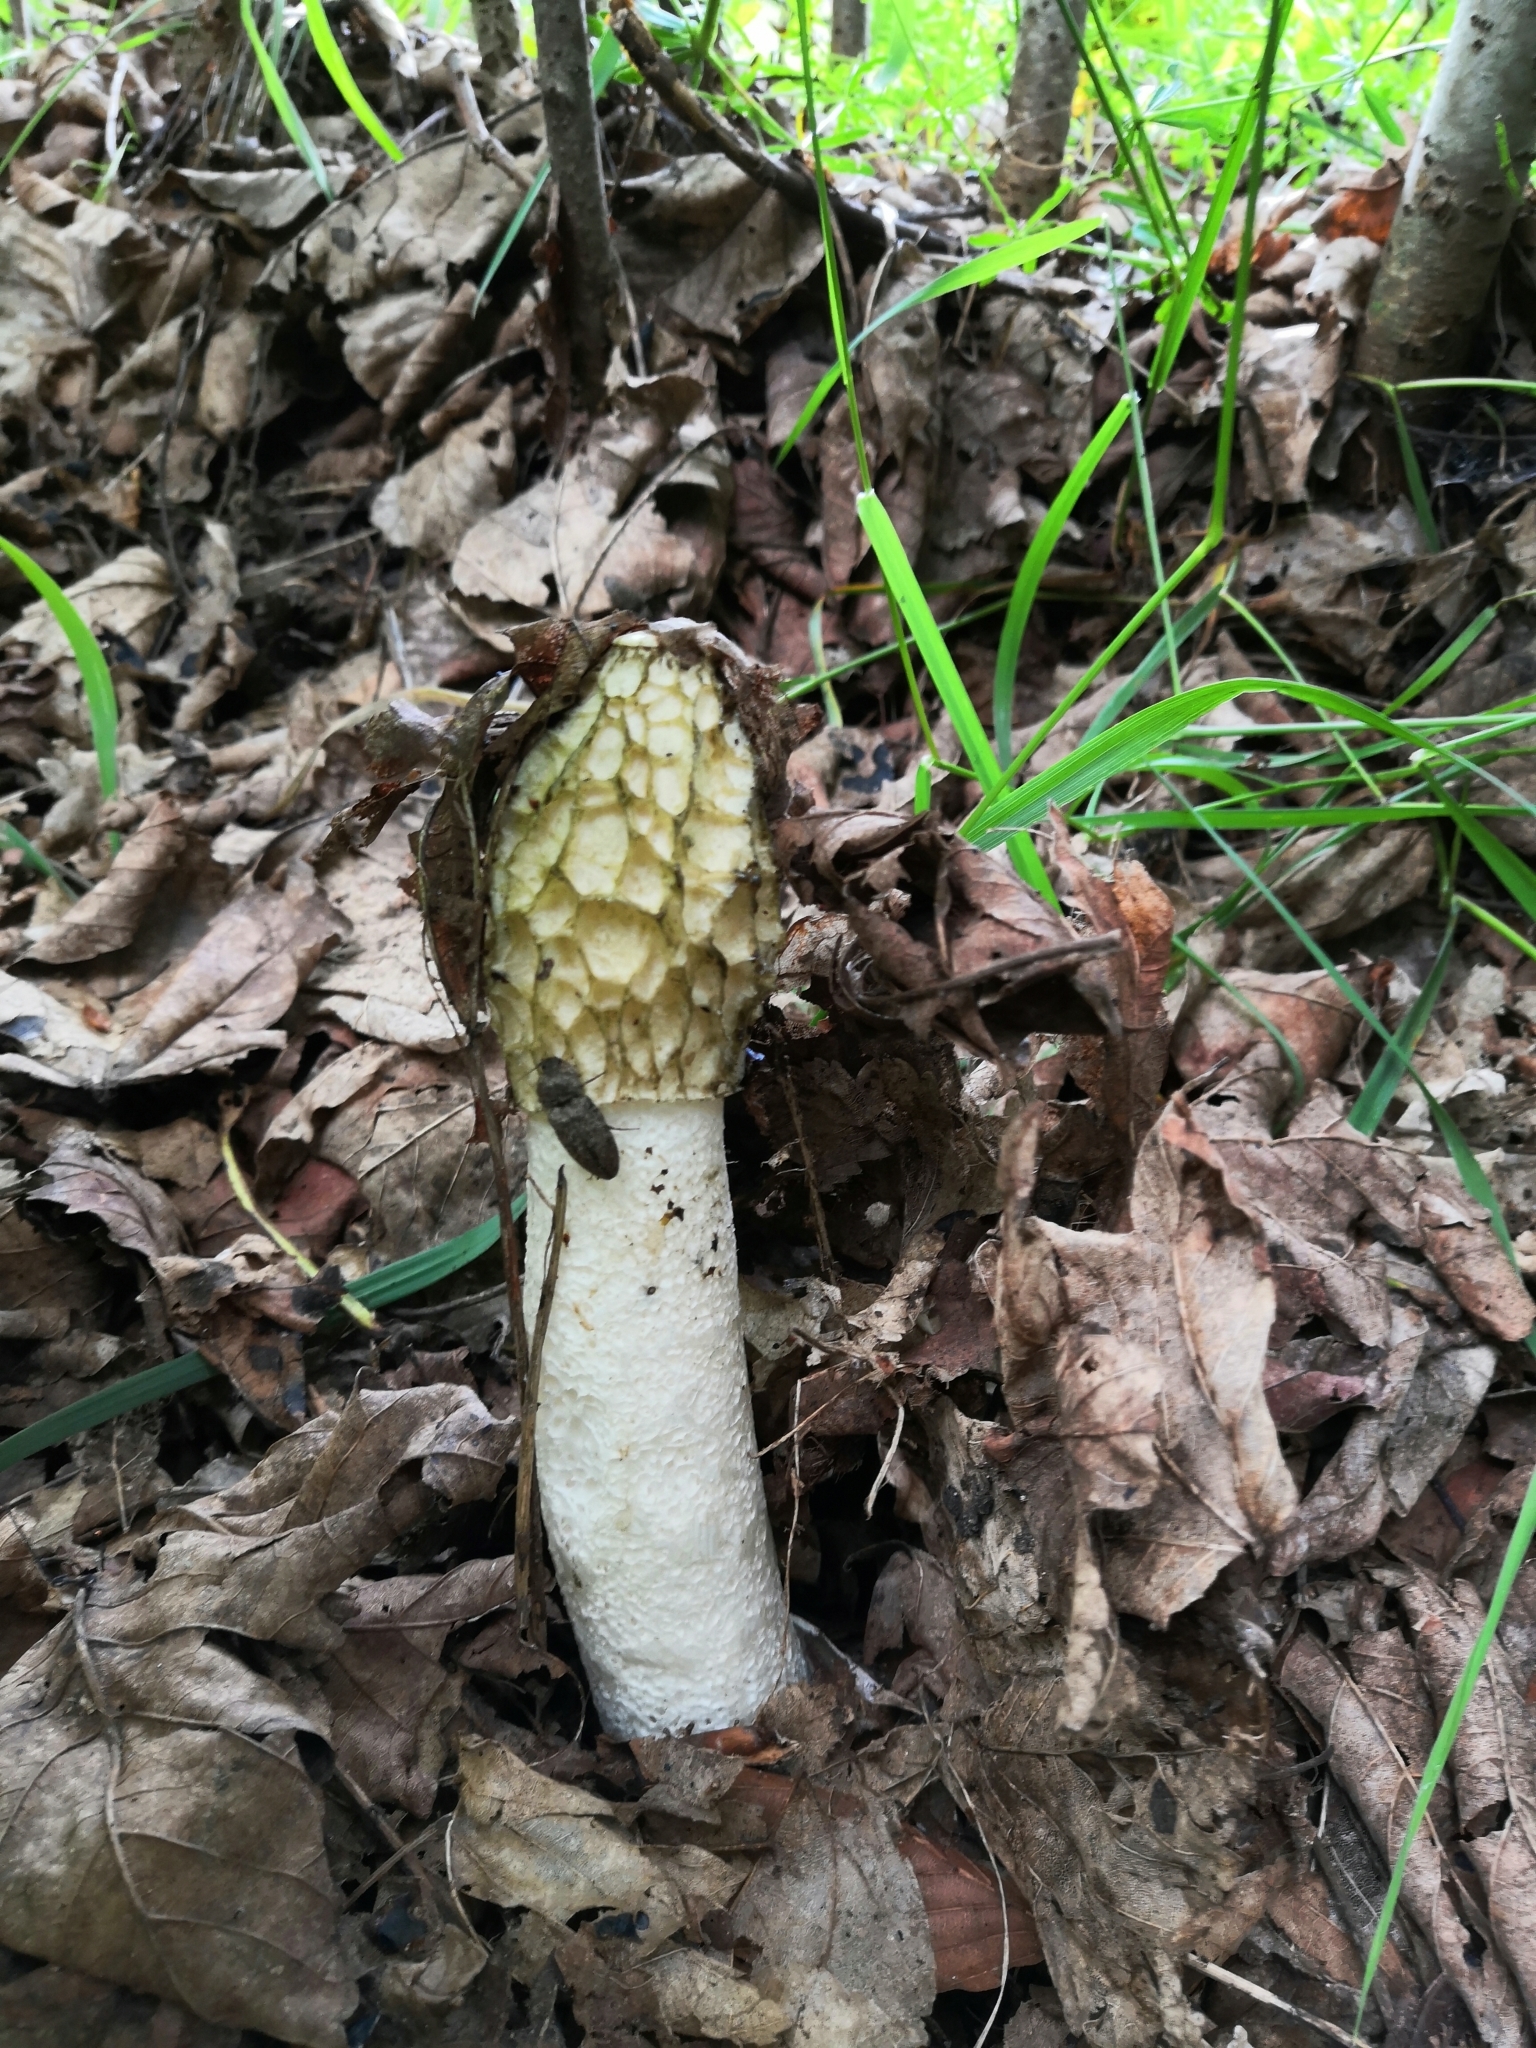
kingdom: Fungi
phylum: Basidiomycota
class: Agaricomycetes
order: Phallales
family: Phallaceae
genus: Phallus
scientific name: Phallus impudicus
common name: Common stinkhorn
